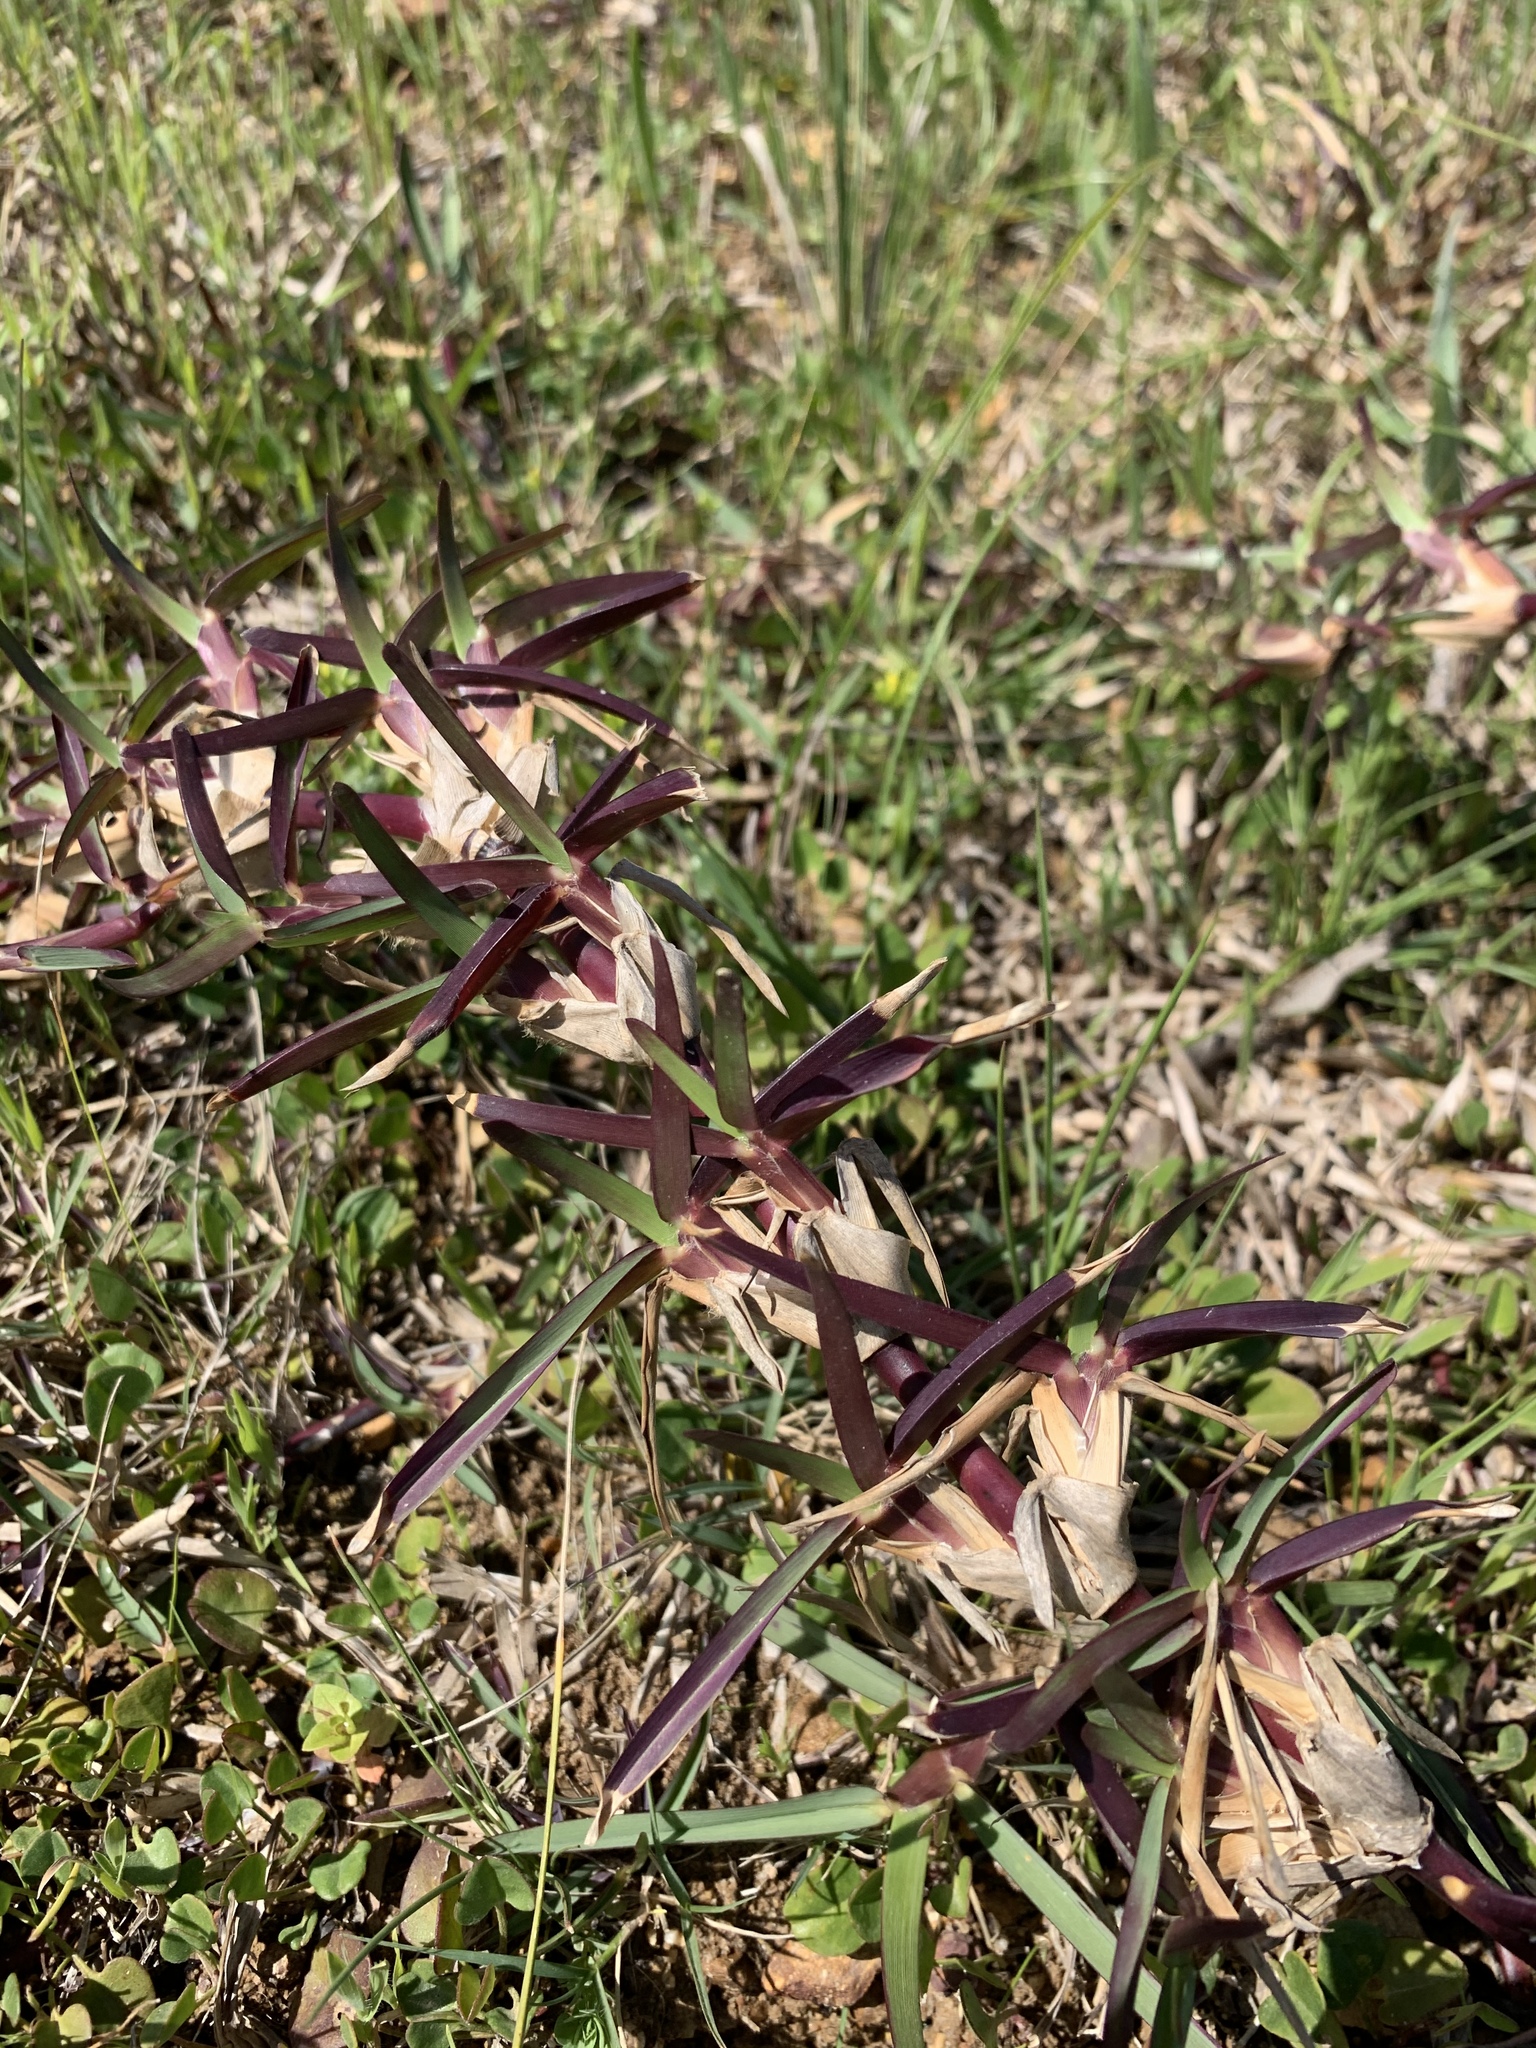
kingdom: Plantae
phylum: Tracheophyta
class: Liliopsida
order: Poales
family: Poaceae
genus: Stenotaphrum
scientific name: Stenotaphrum secundatum
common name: St. augustine grass
